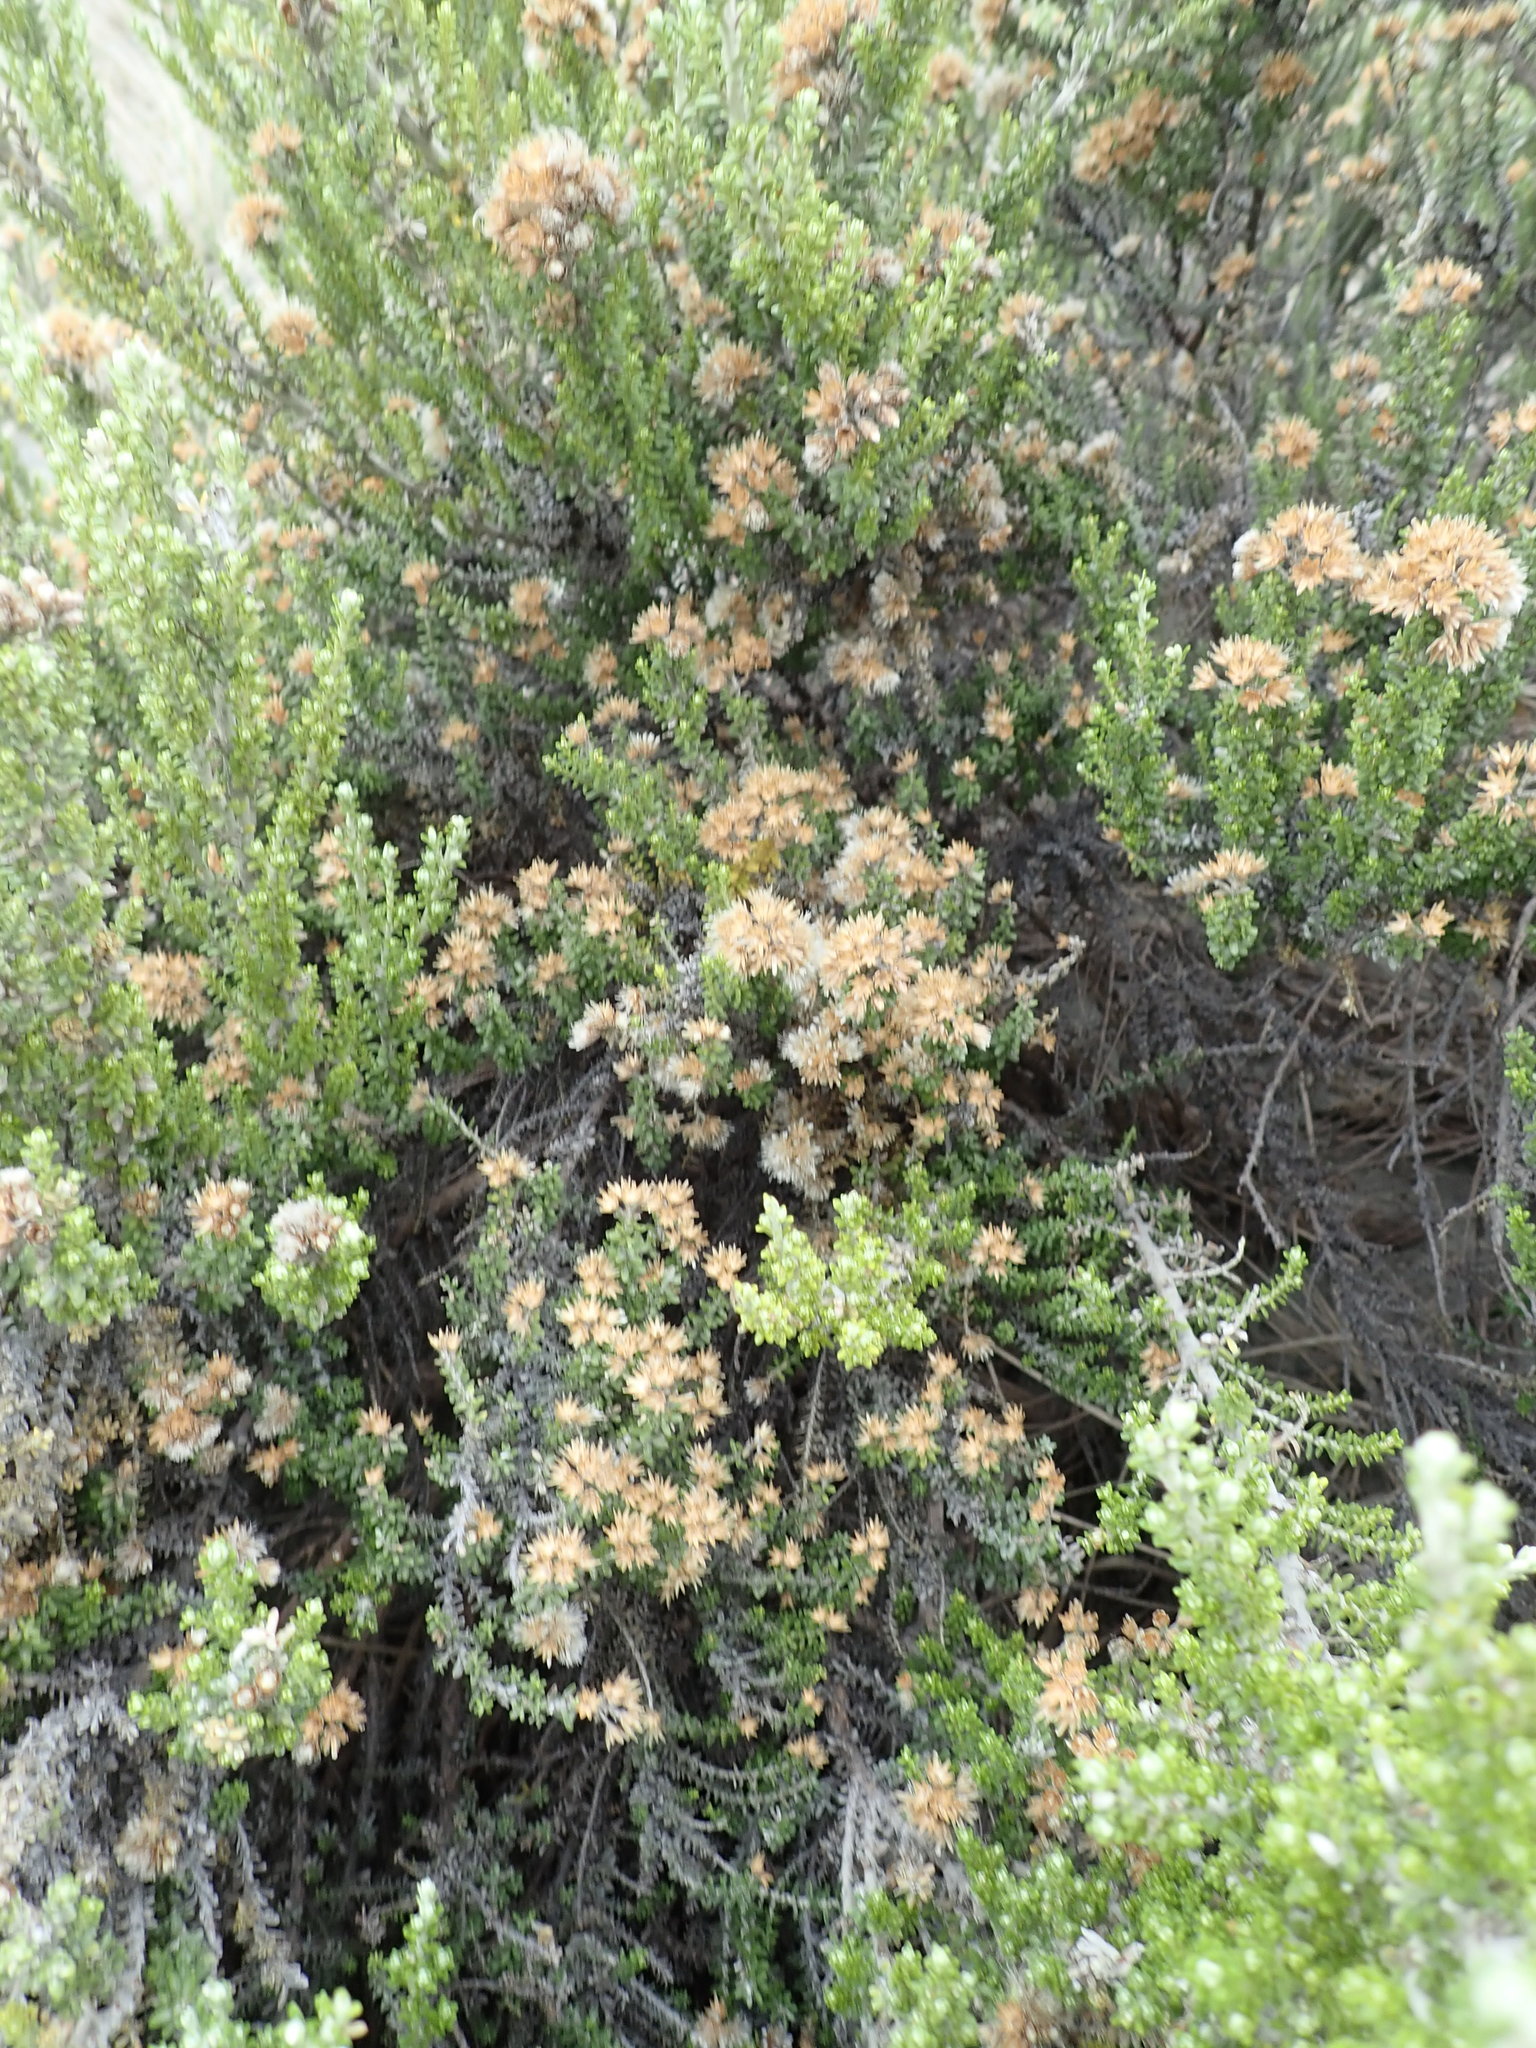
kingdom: Plantae
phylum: Tracheophyta
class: Magnoliopsida
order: Asterales
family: Asteraceae
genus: Ozothamnus
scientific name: Ozothamnus leptophyllus
